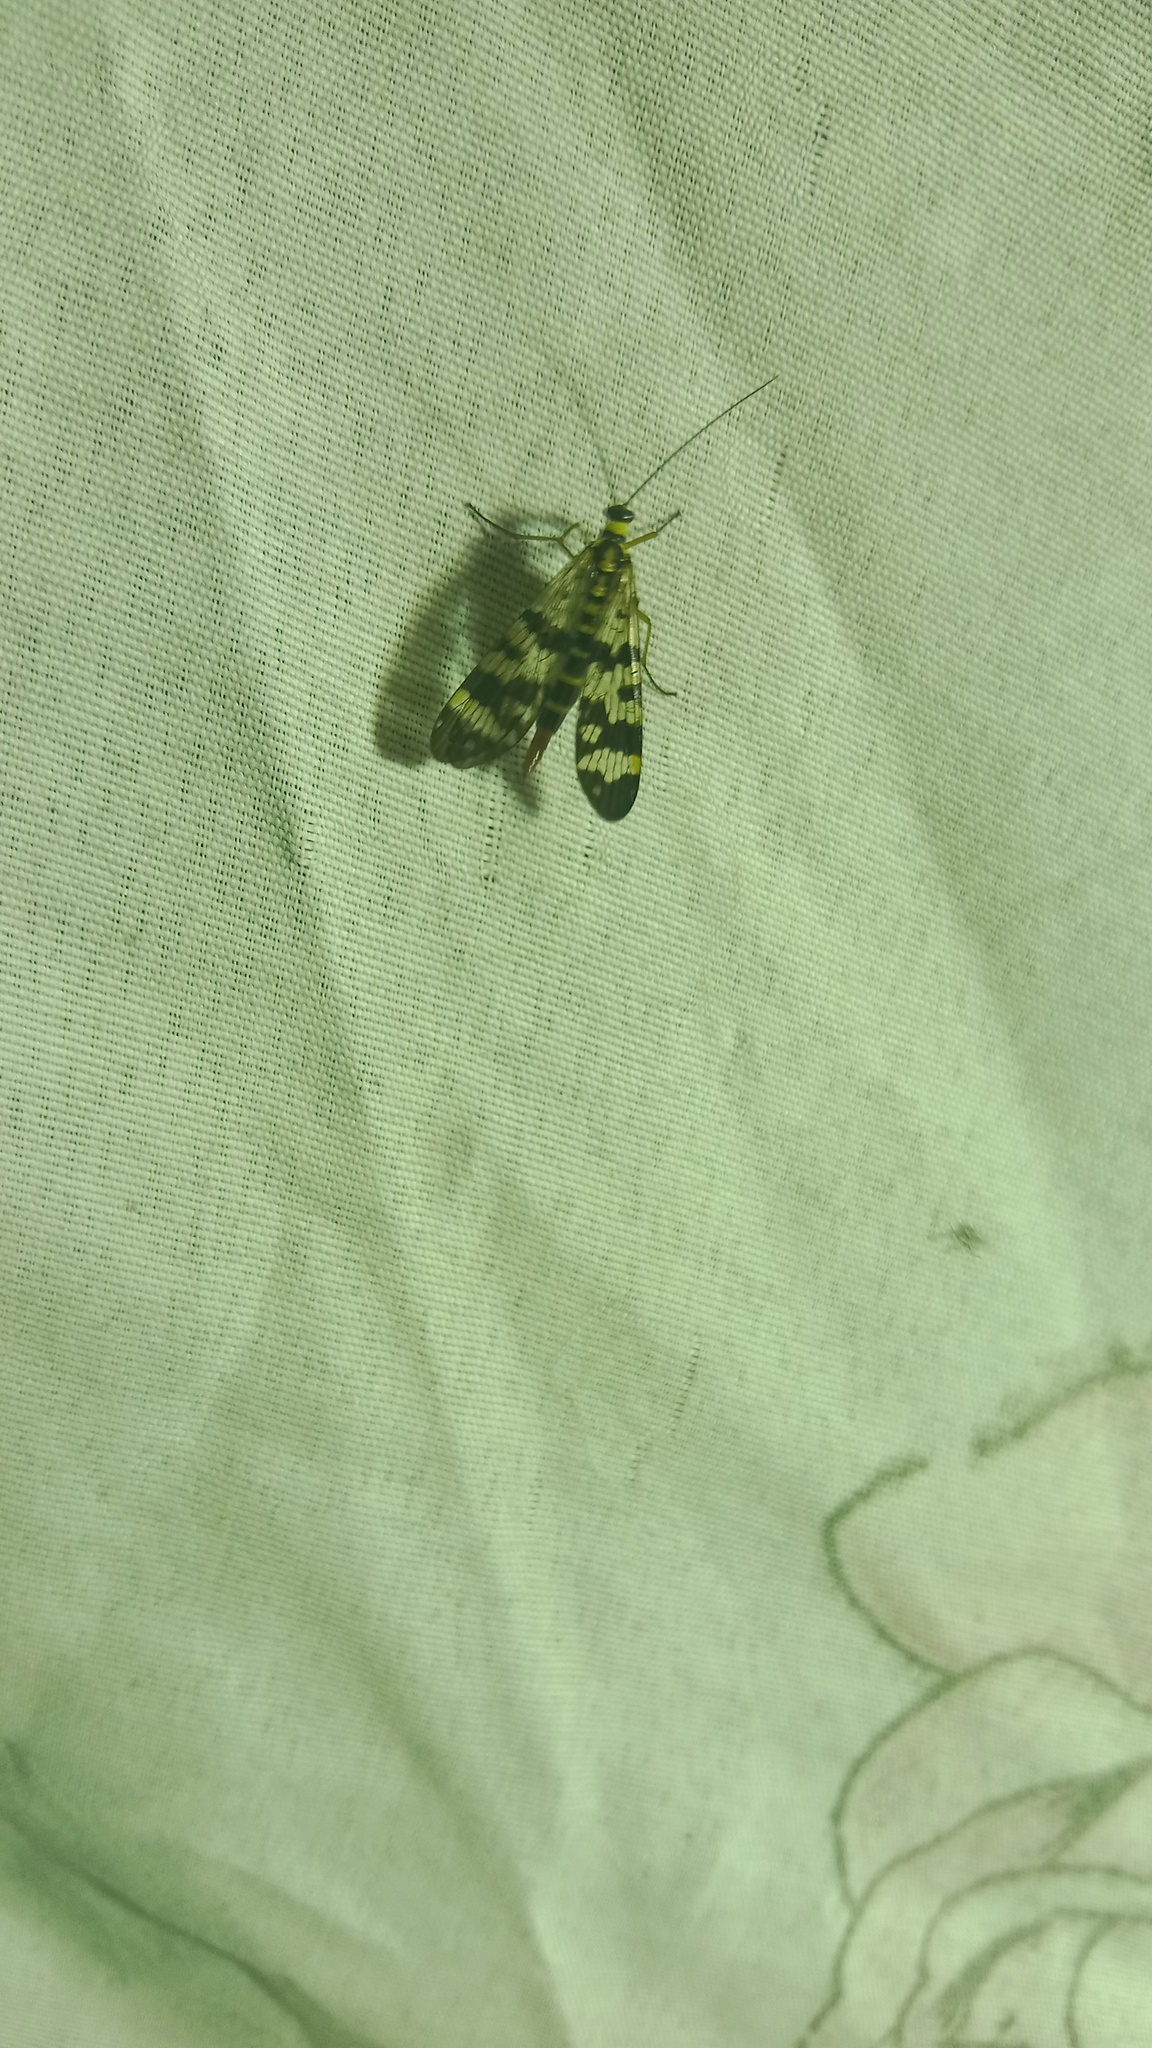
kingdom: Animalia
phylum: Arthropoda
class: Insecta
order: Mecoptera
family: Panorpidae
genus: Panorpa
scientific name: Panorpa communis
